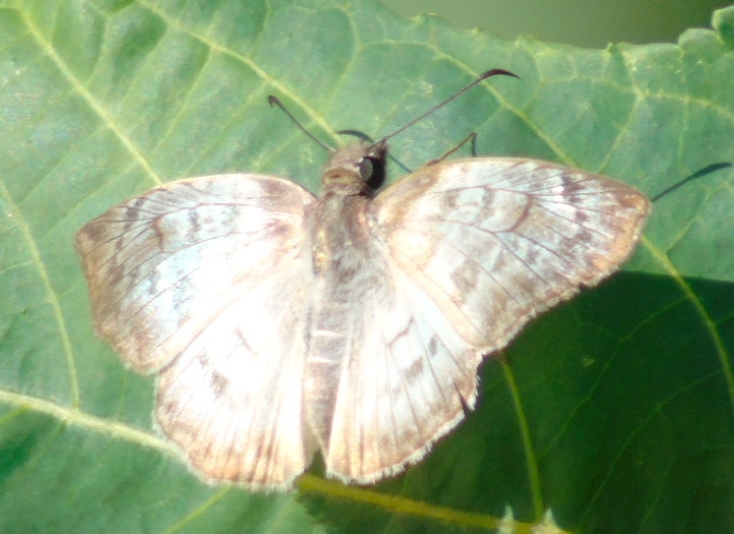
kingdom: Animalia
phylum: Arthropoda
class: Insecta
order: Lepidoptera
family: Hesperiidae
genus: Mylon
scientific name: Mylon pelopidas
